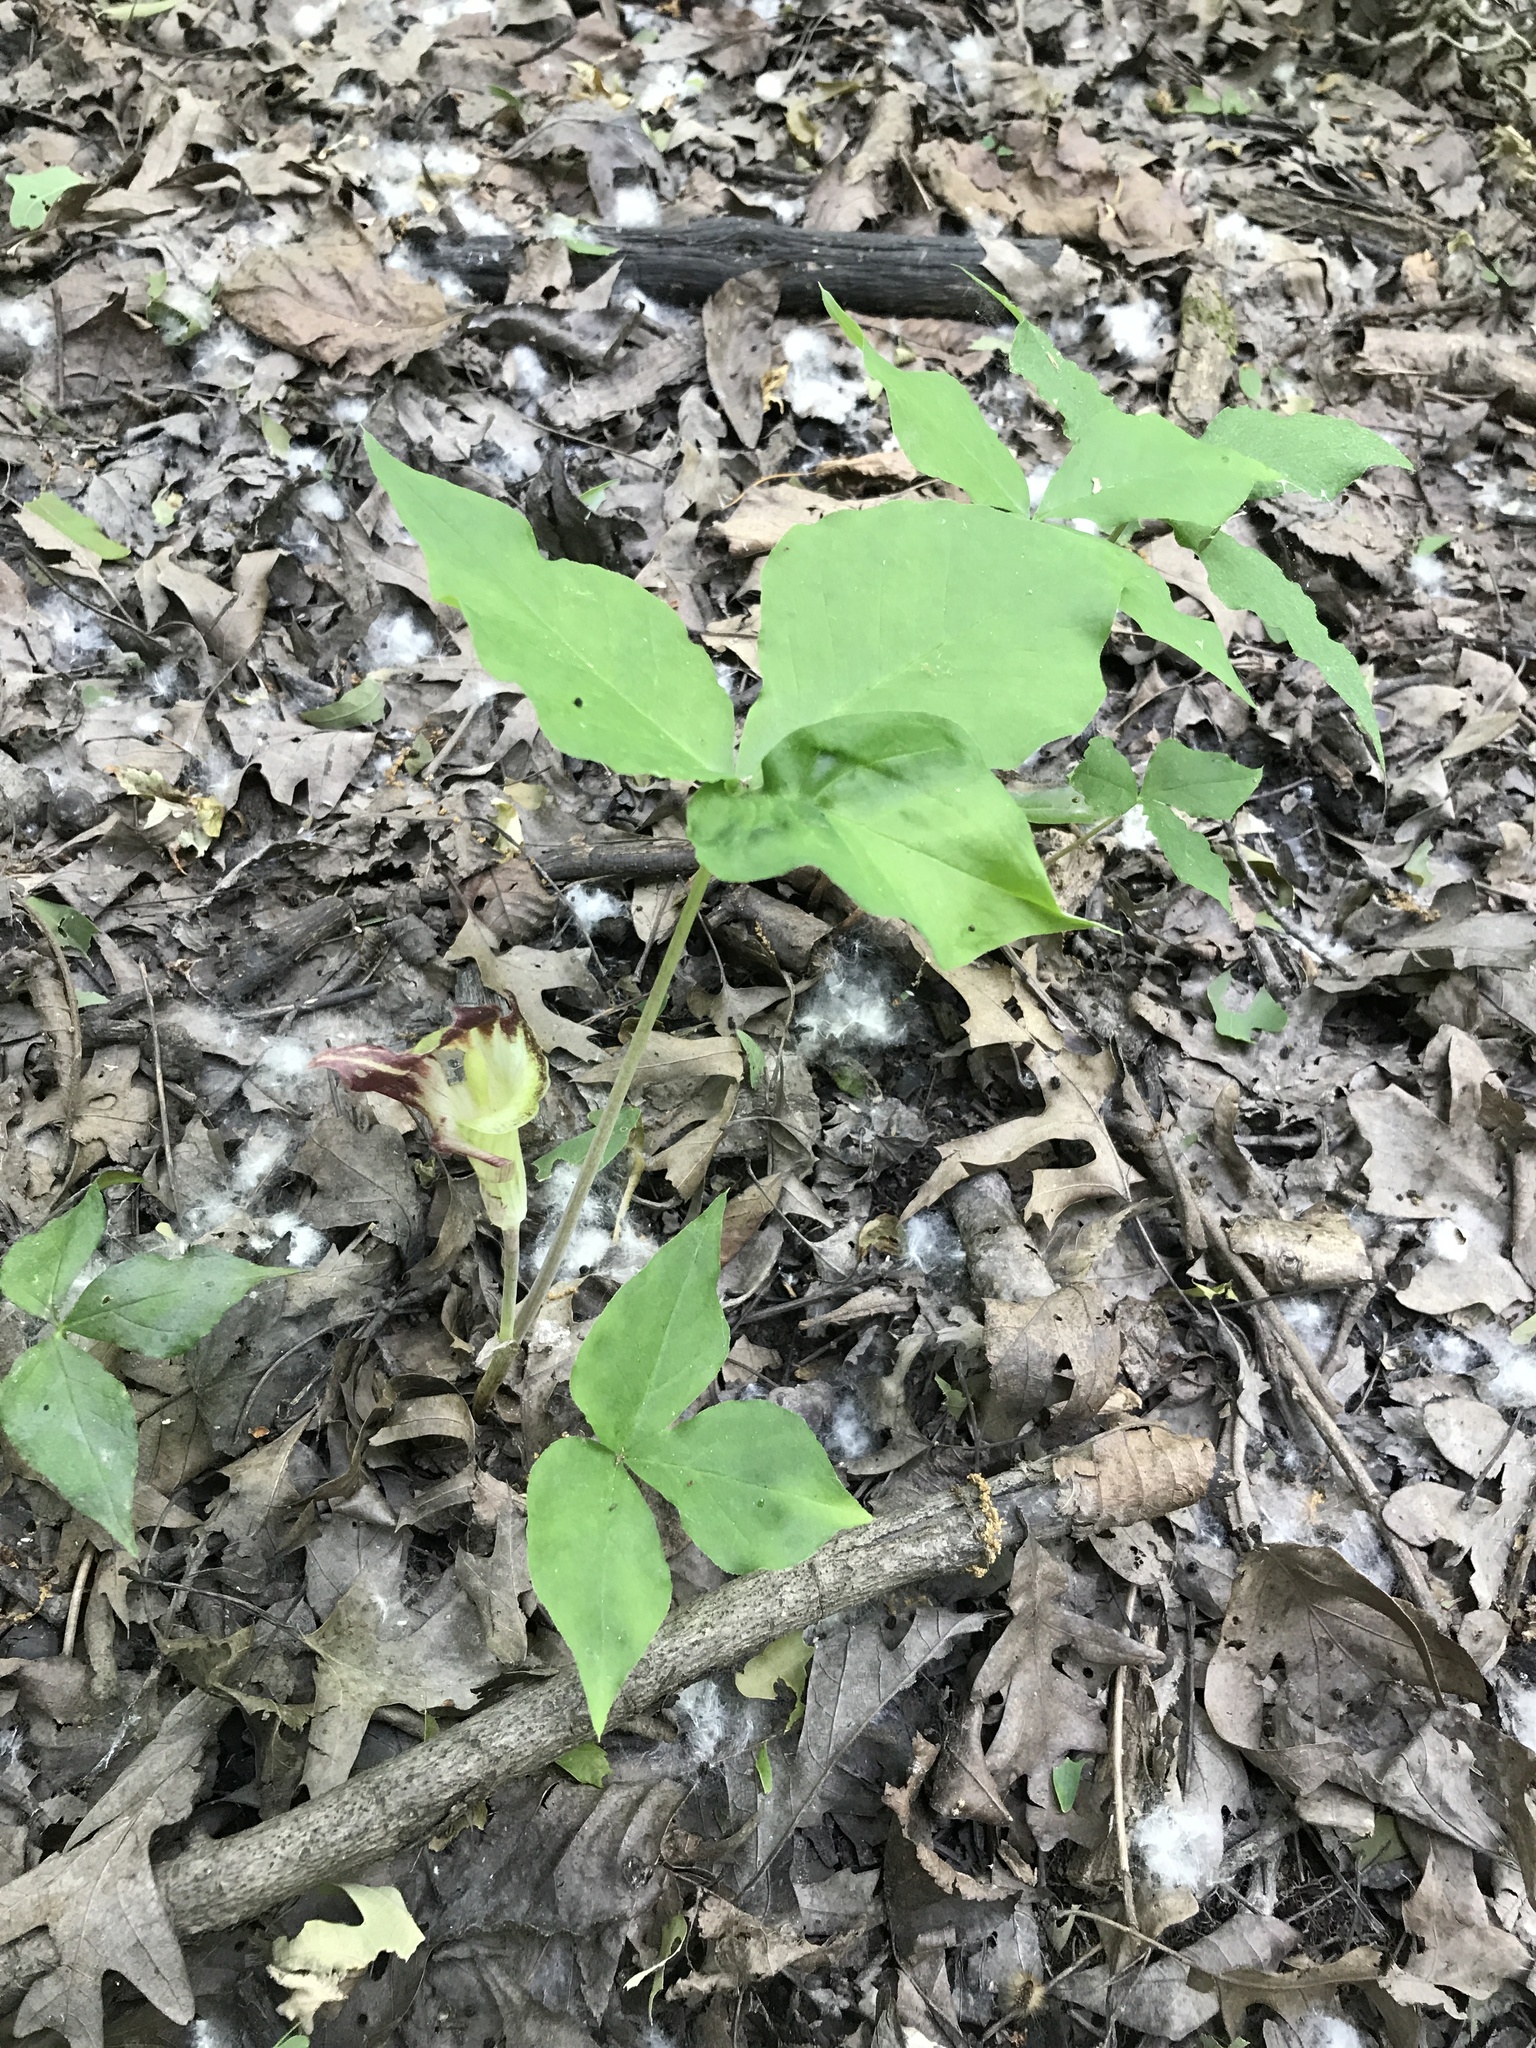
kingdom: Plantae
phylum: Tracheophyta
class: Liliopsida
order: Alismatales
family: Araceae
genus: Arisaema
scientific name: Arisaema triphyllum
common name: Jack-in-the-pulpit
